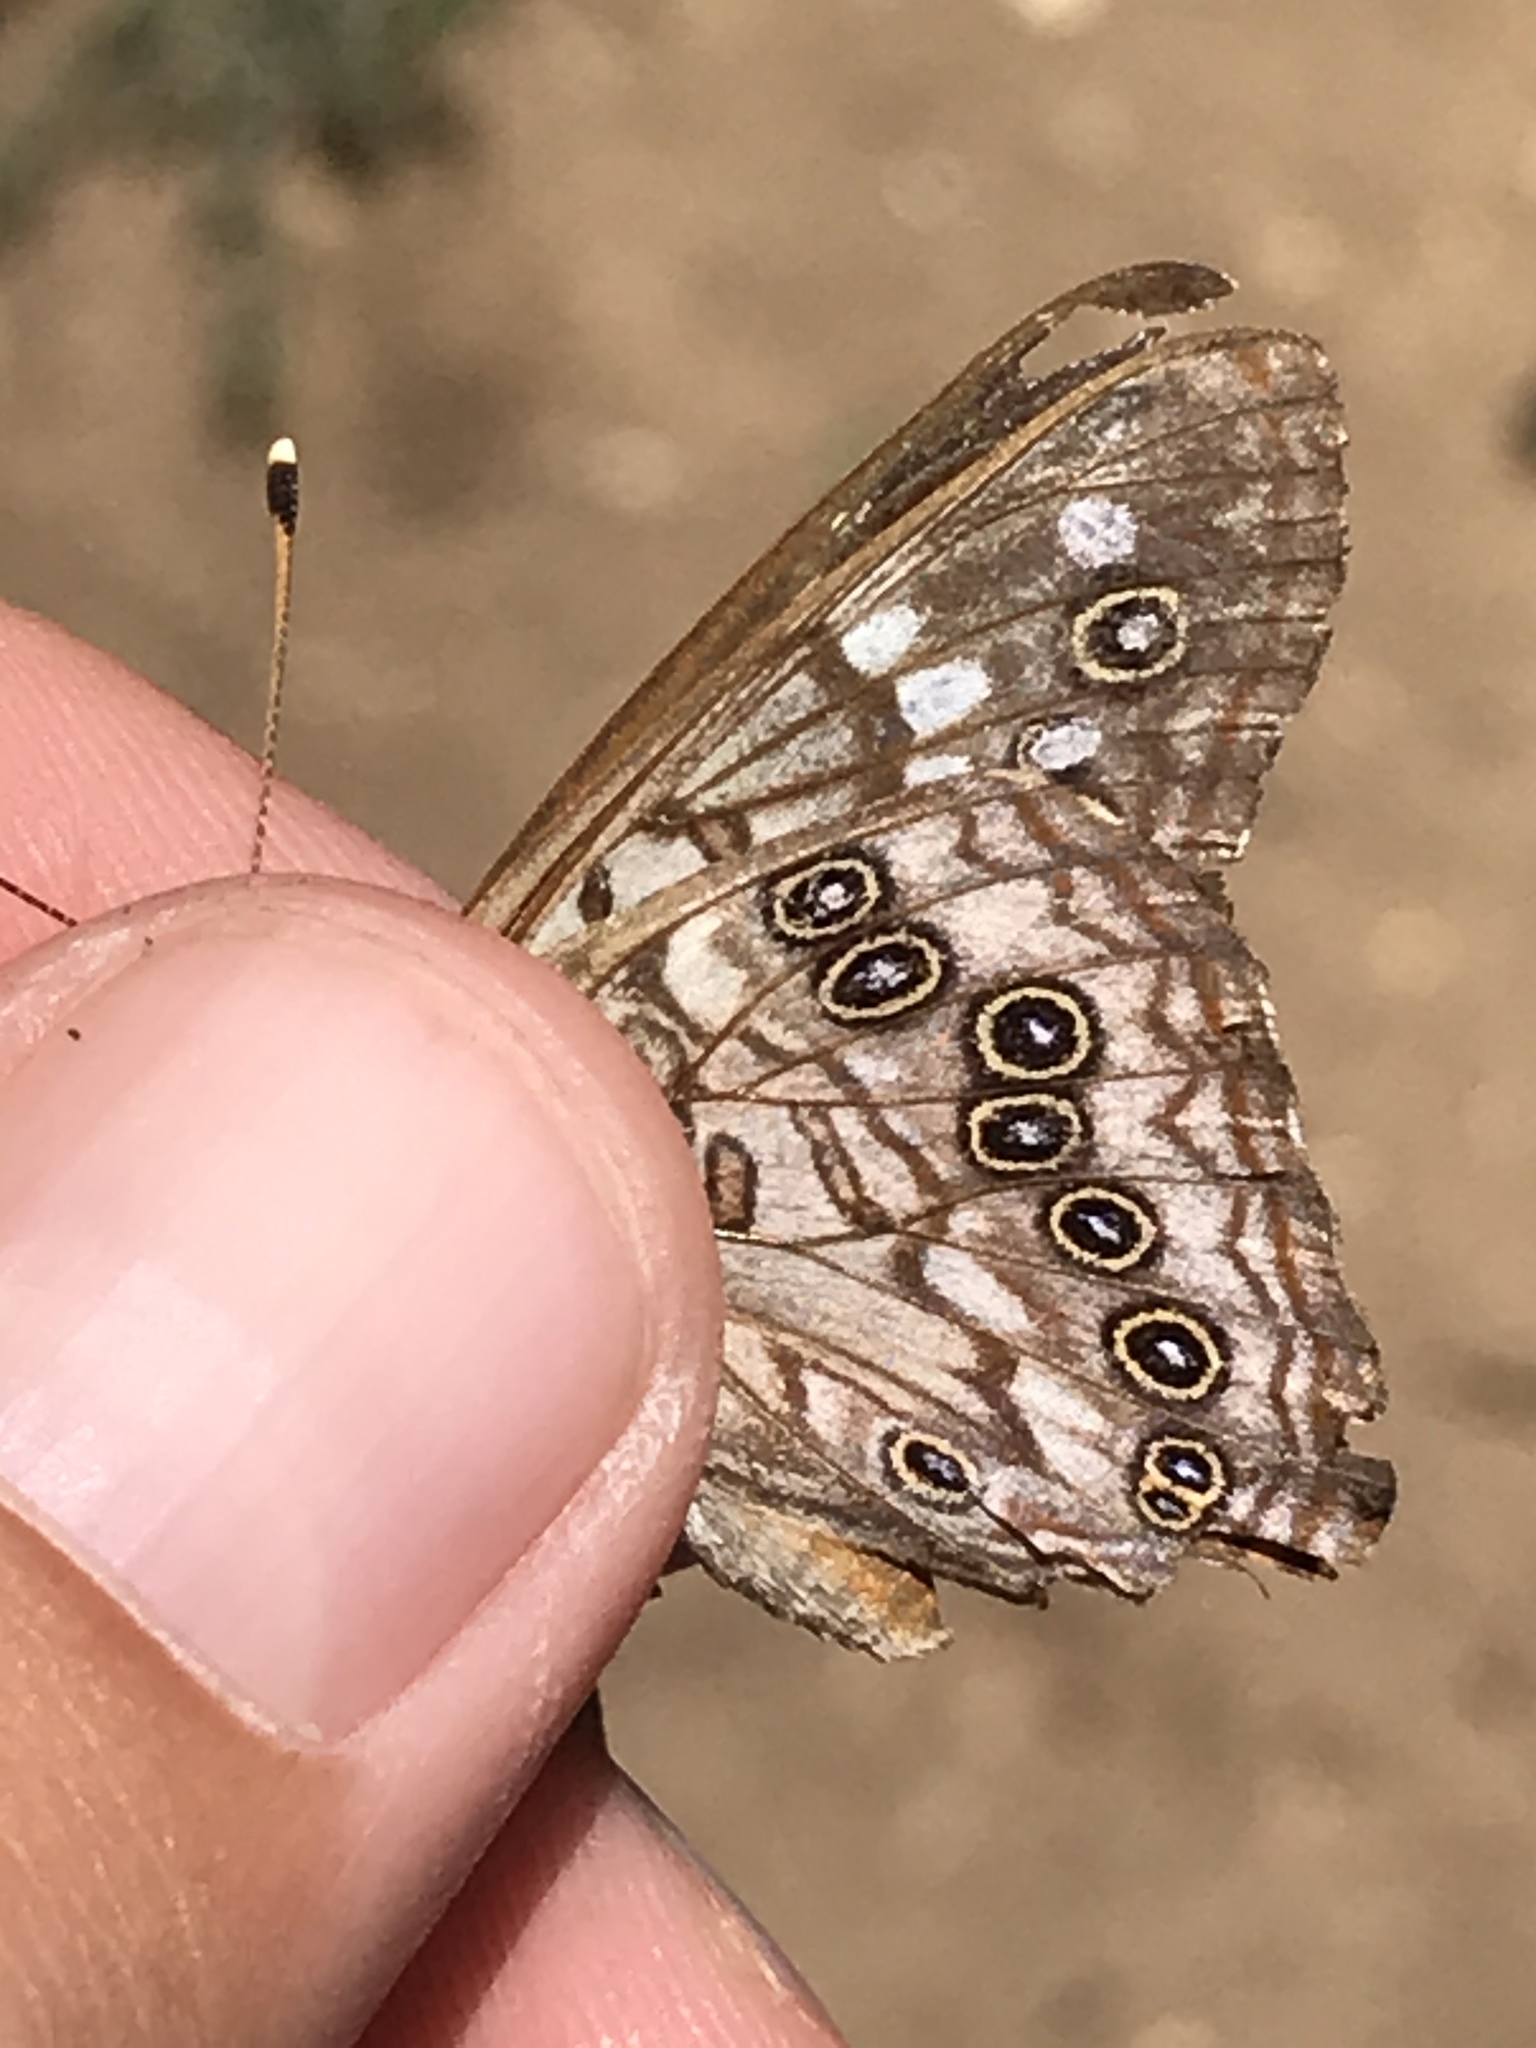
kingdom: Animalia
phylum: Arthropoda
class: Insecta
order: Lepidoptera
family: Nymphalidae
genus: Asterocampa
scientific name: Asterocampa celtis
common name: Hackberry emperor
